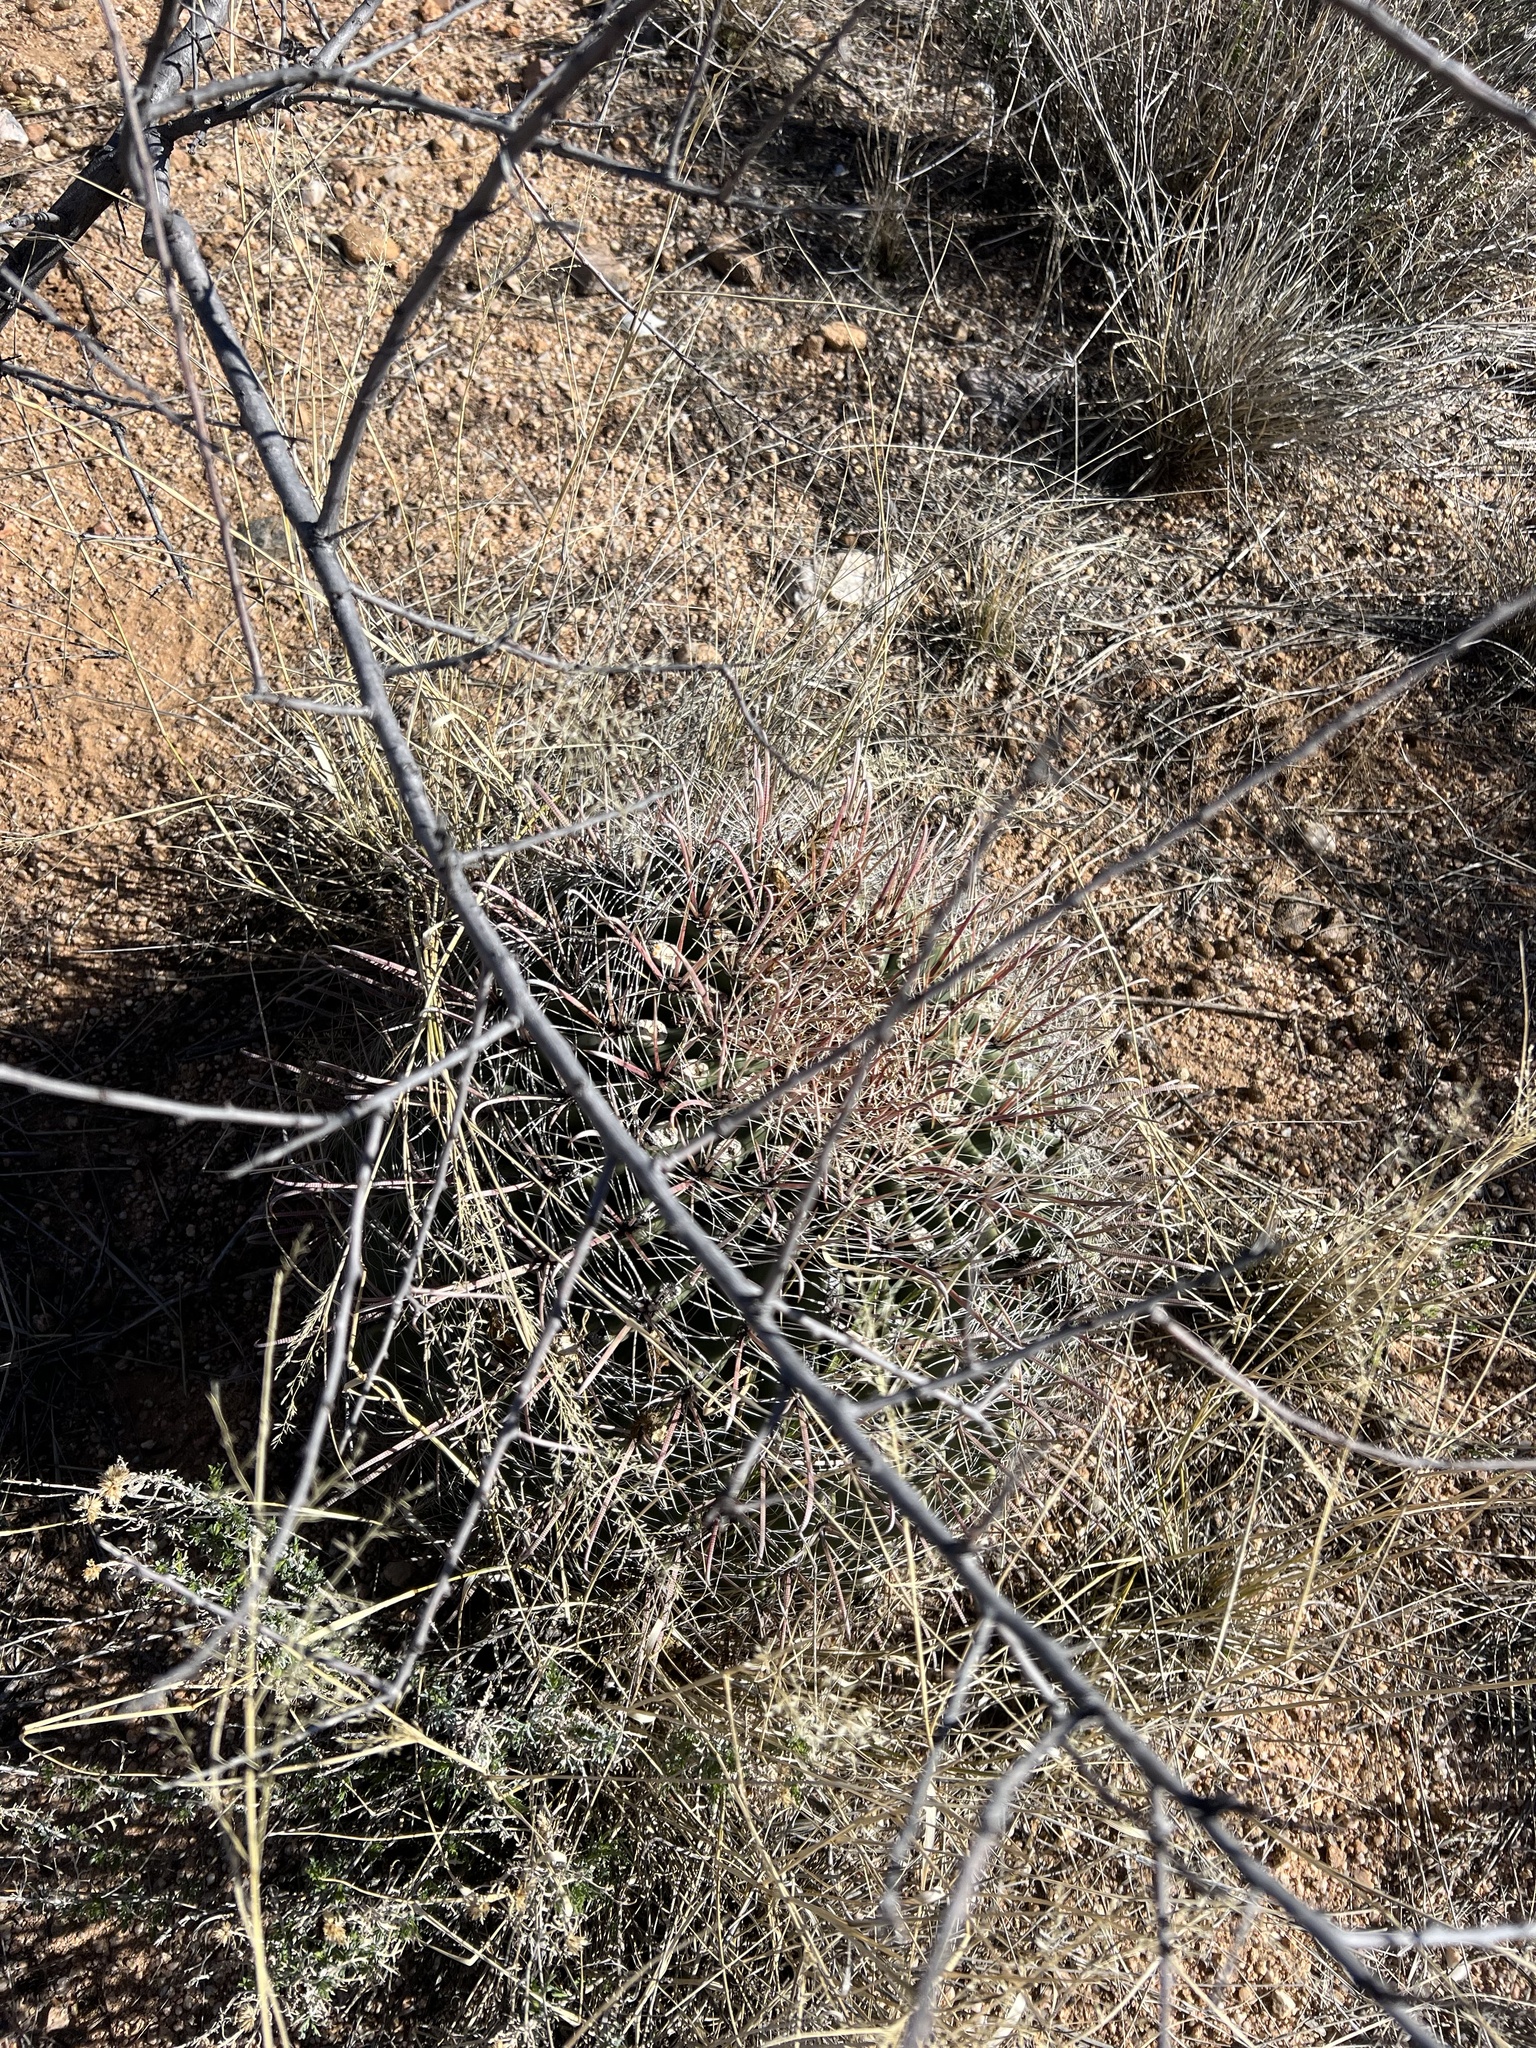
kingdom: Plantae
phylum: Tracheophyta
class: Magnoliopsida
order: Caryophyllales
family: Cactaceae
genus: Ferocactus
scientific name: Ferocactus wislizeni
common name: Candy barrel cactus
